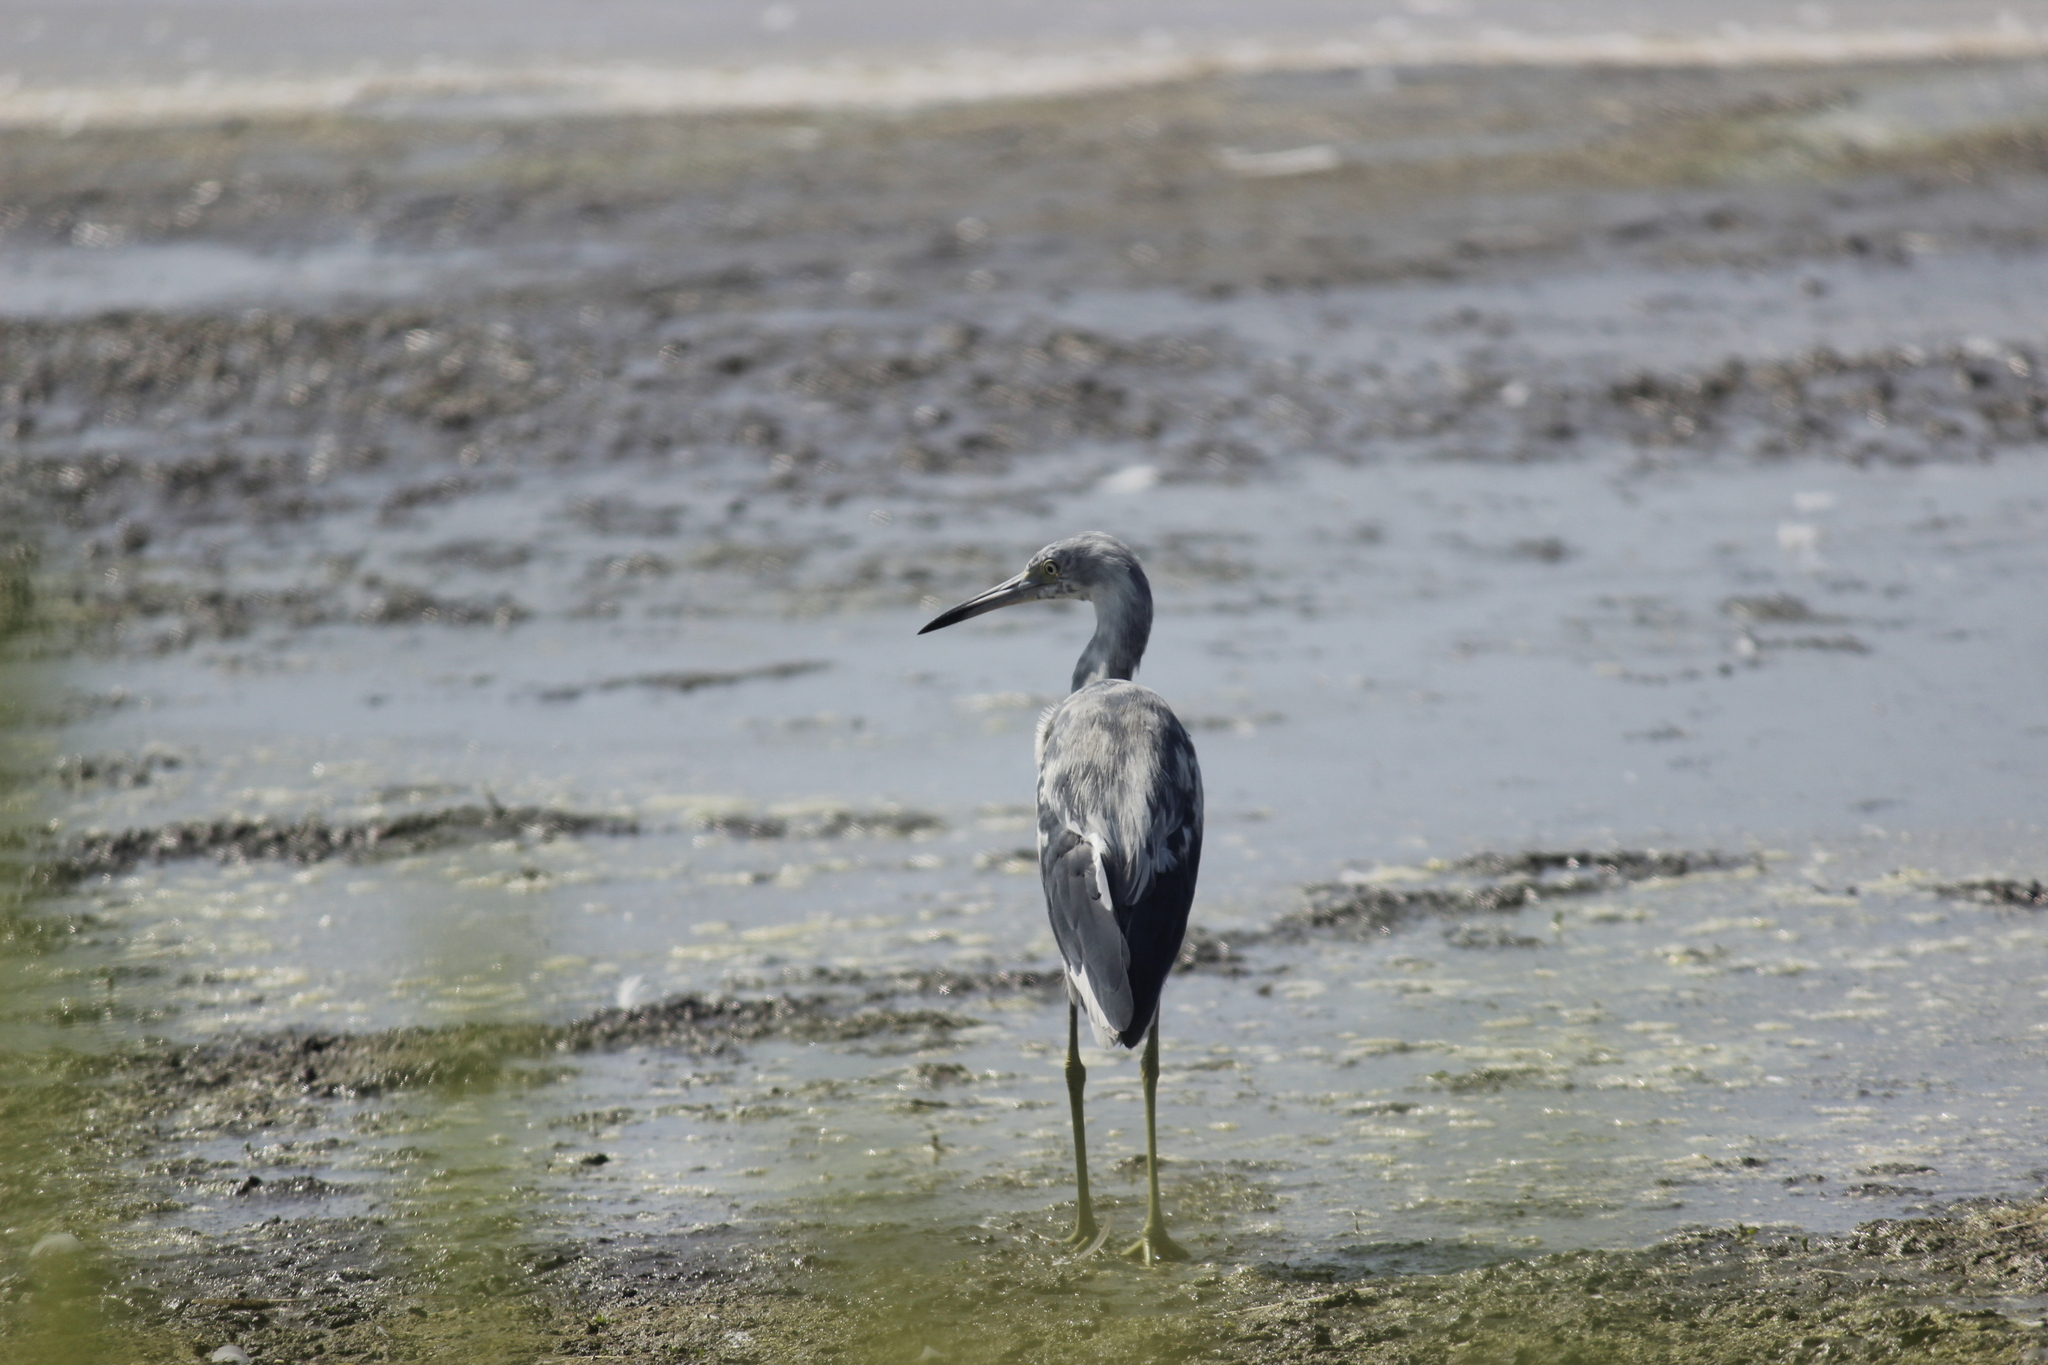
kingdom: Animalia
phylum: Chordata
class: Aves
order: Pelecaniformes
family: Ardeidae
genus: Egretta
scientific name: Egretta caerulea
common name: Little blue heron
